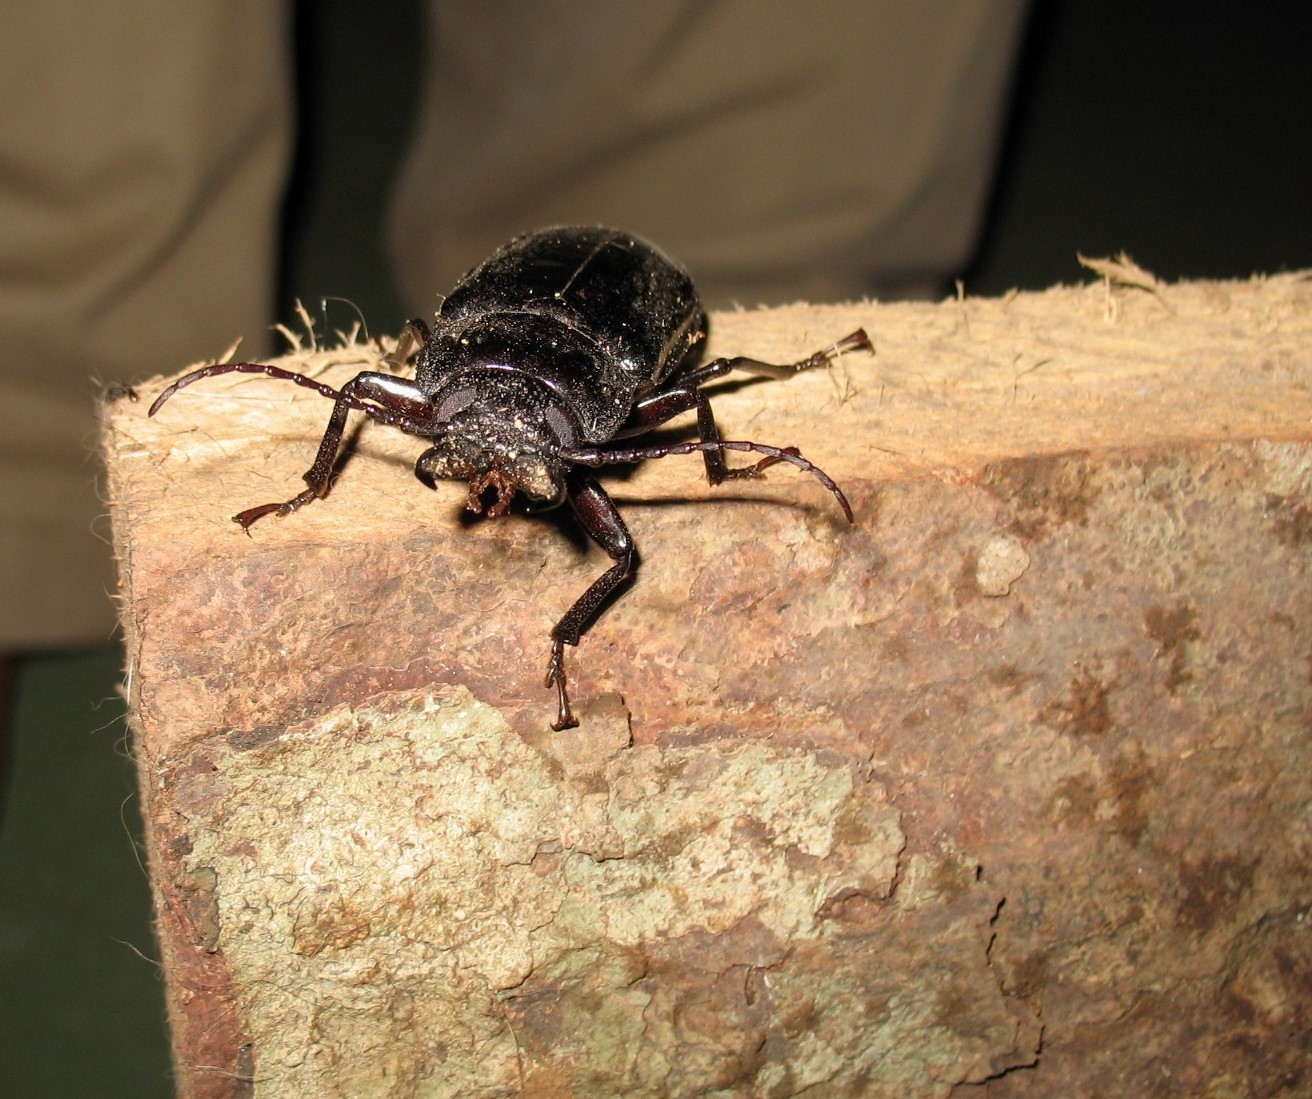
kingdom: Animalia
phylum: Arthropoda
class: Insecta
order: Coleoptera
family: Cerambycidae
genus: Mallodon
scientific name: Mallodon downesii
